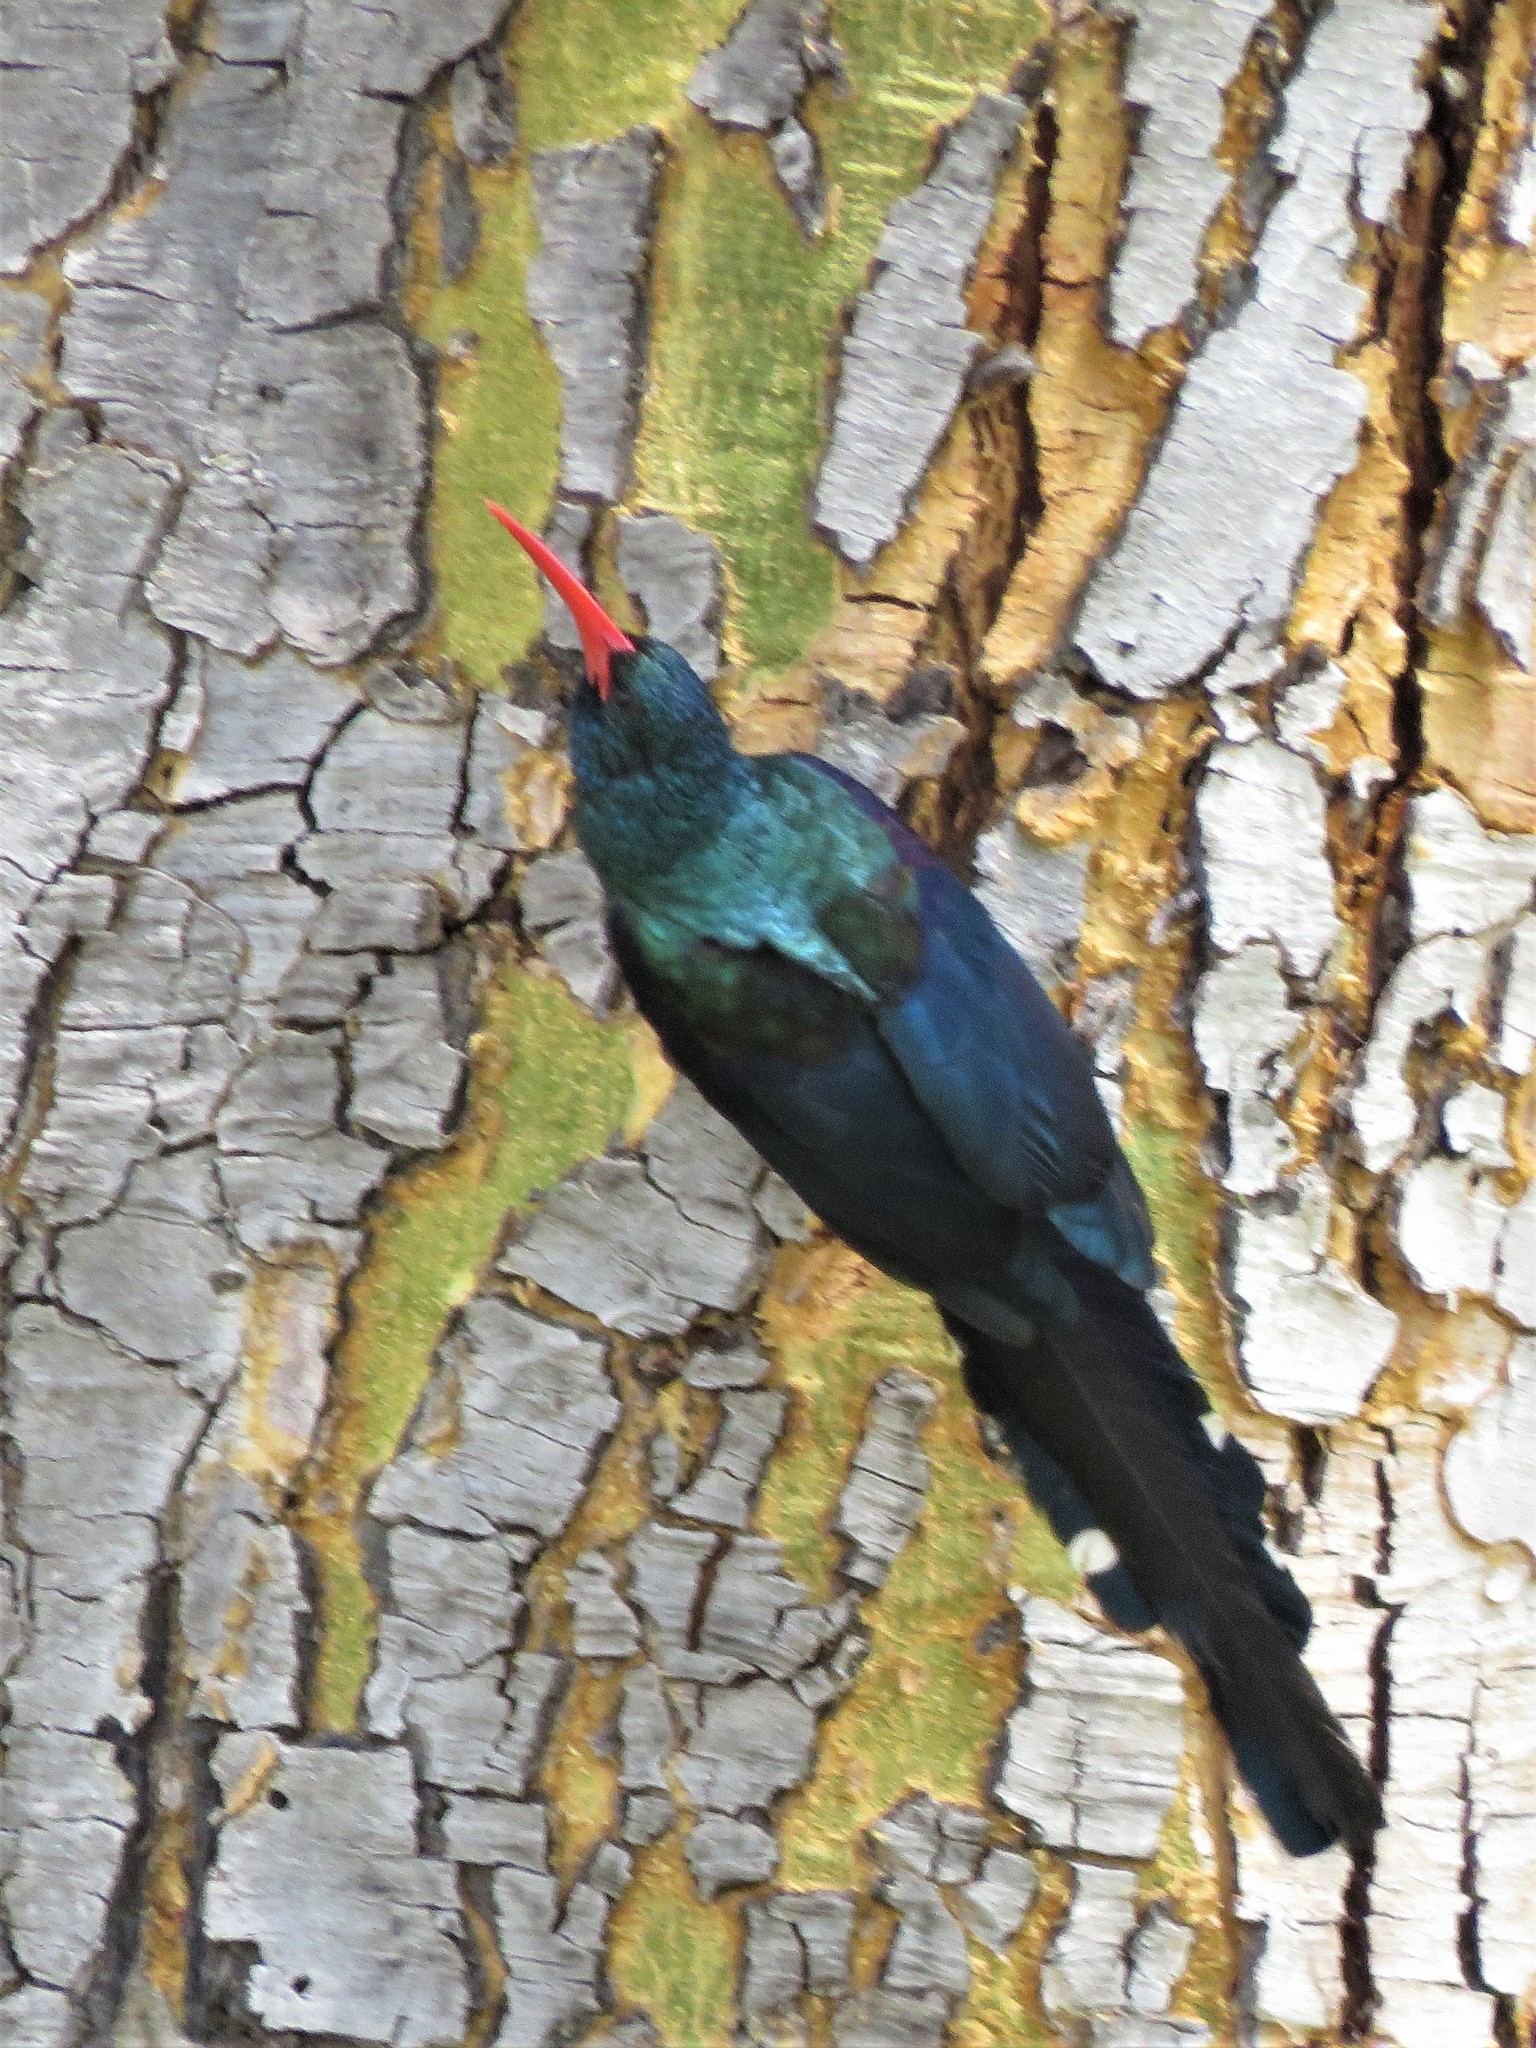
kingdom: Animalia
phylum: Chordata
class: Aves
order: Bucerotiformes
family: Phoeniculidae
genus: Phoeniculus
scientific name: Phoeniculus purpureus
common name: Green woodhoopoe
